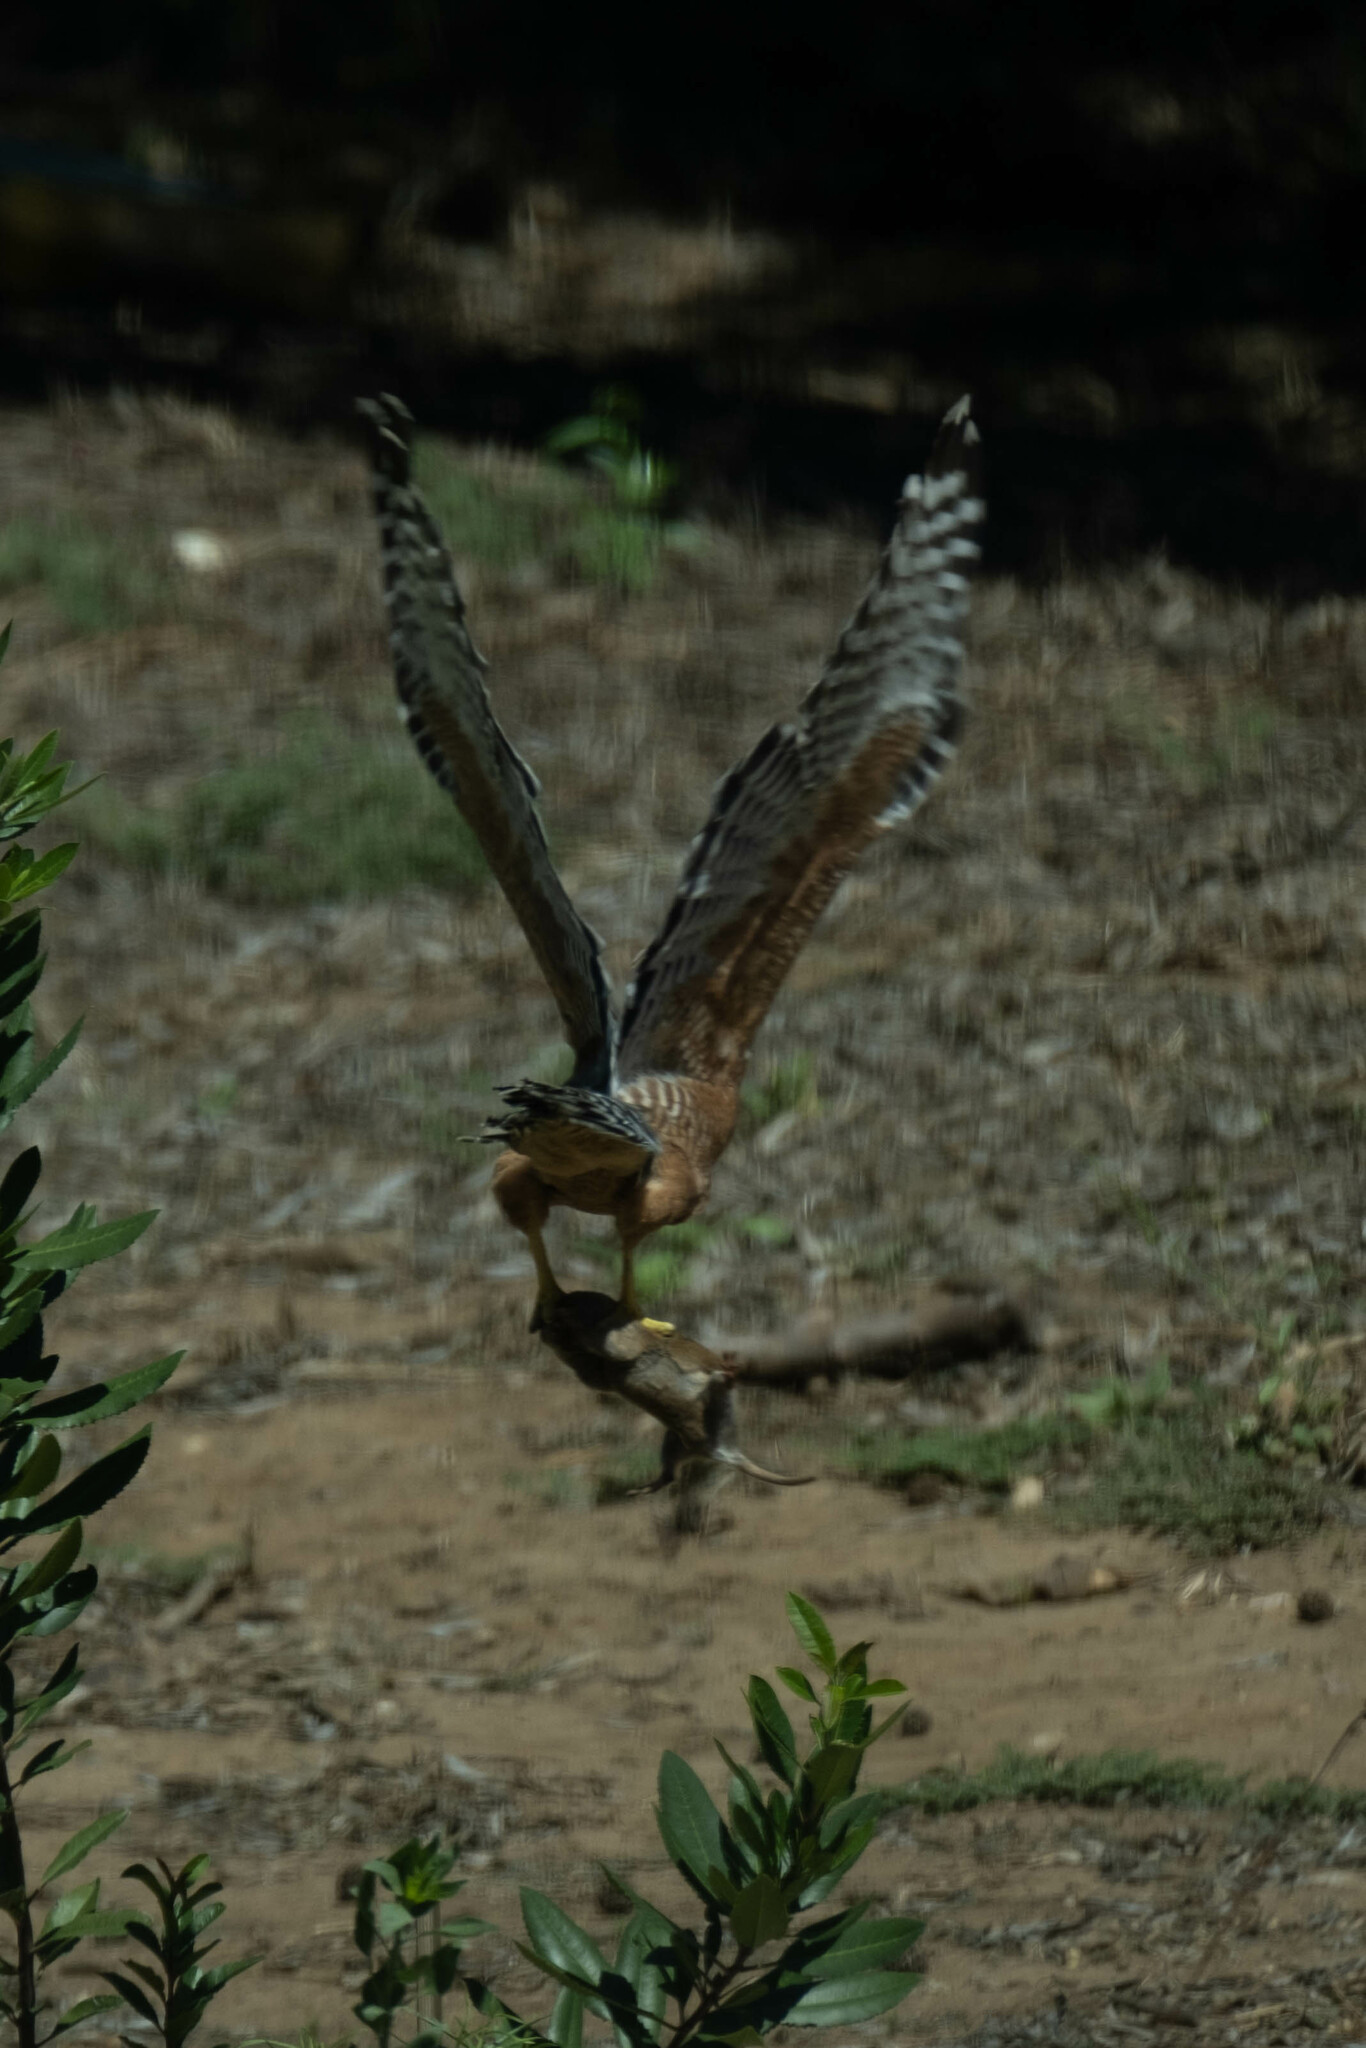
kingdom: Animalia
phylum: Chordata
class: Aves
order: Accipitriformes
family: Accipitridae
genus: Buteo
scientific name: Buteo lineatus
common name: Red-shouldered hawk
